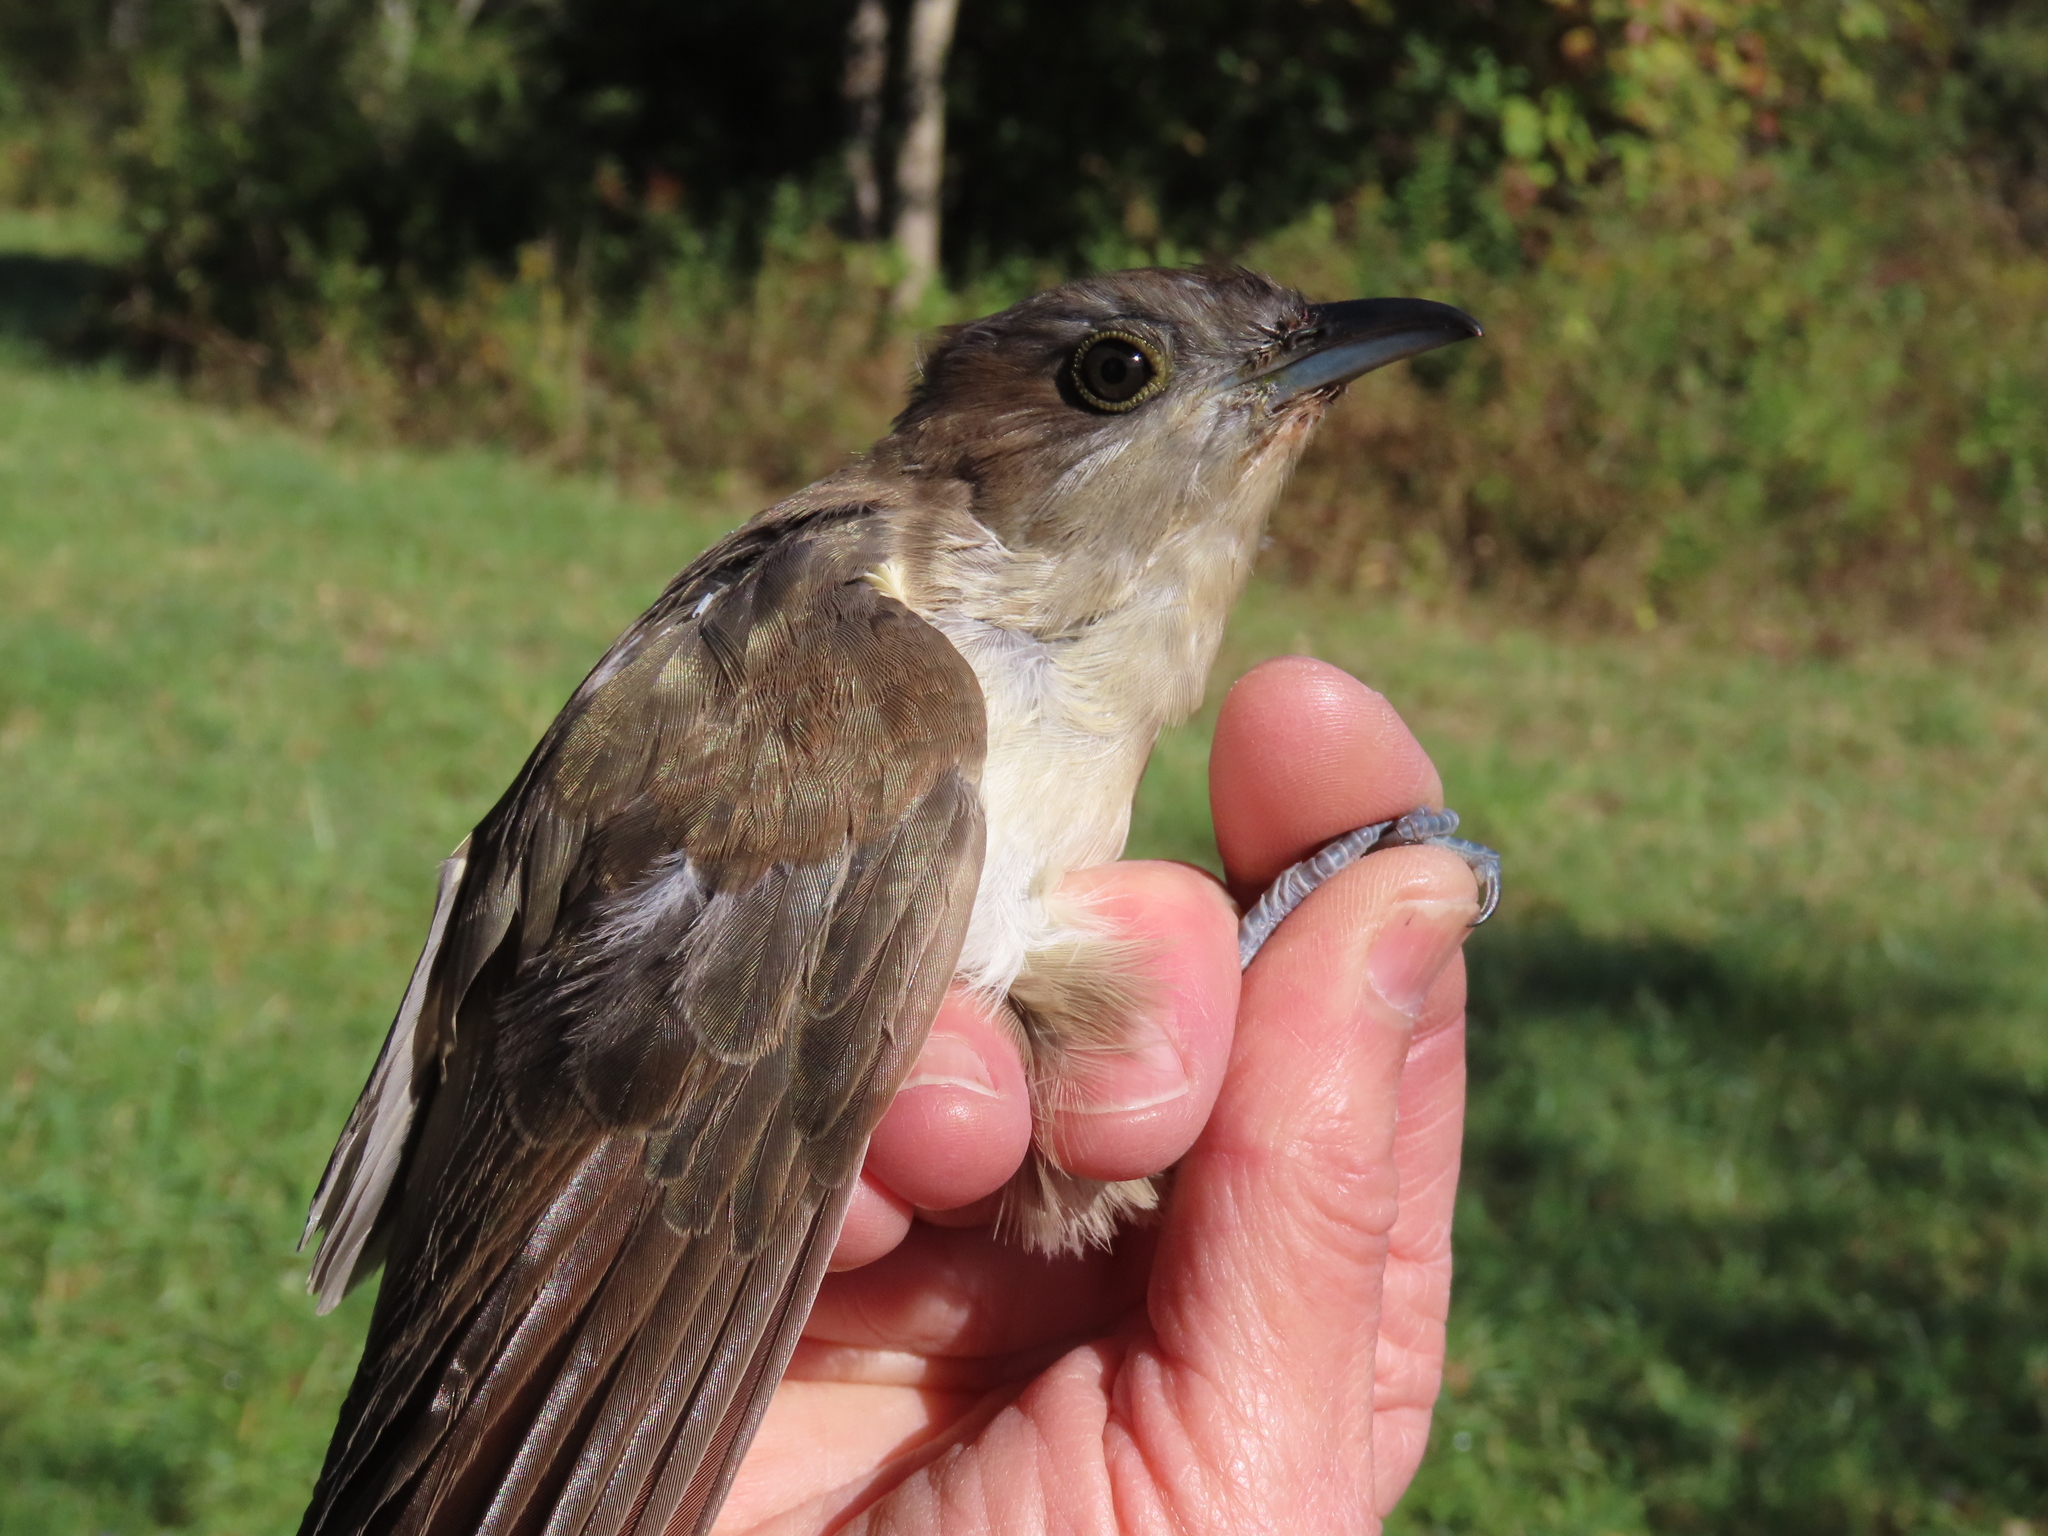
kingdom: Animalia
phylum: Chordata
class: Aves
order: Cuculiformes
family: Cuculidae
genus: Coccyzus
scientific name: Coccyzus erythropthalmus
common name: Black-billed cuckoo
